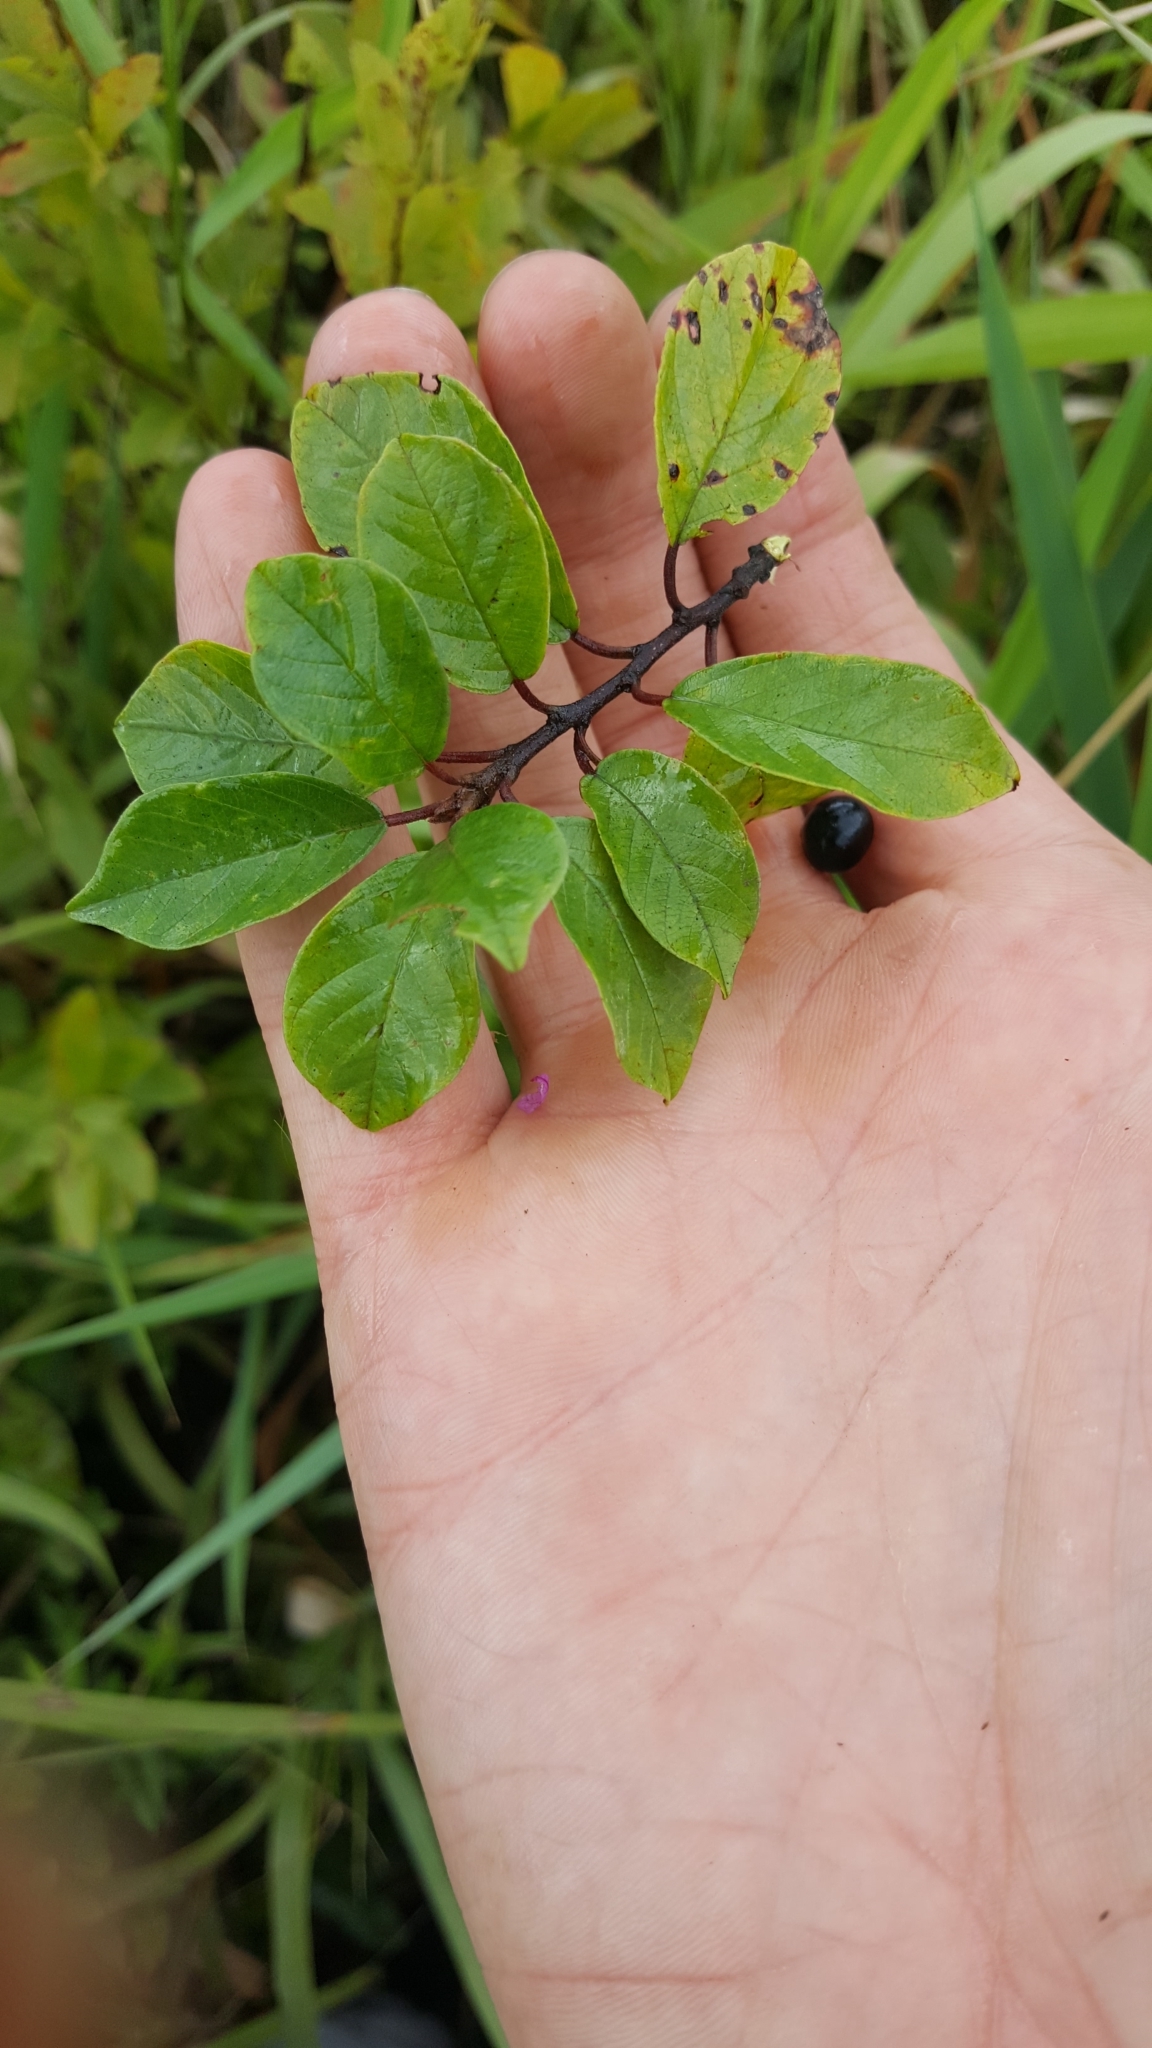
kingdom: Plantae
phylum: Tracheophyta
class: Magnoliopsida
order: Rosales
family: Rhamnaceae
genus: Frangula
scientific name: Frangula alnus
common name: Alder buckthorn
